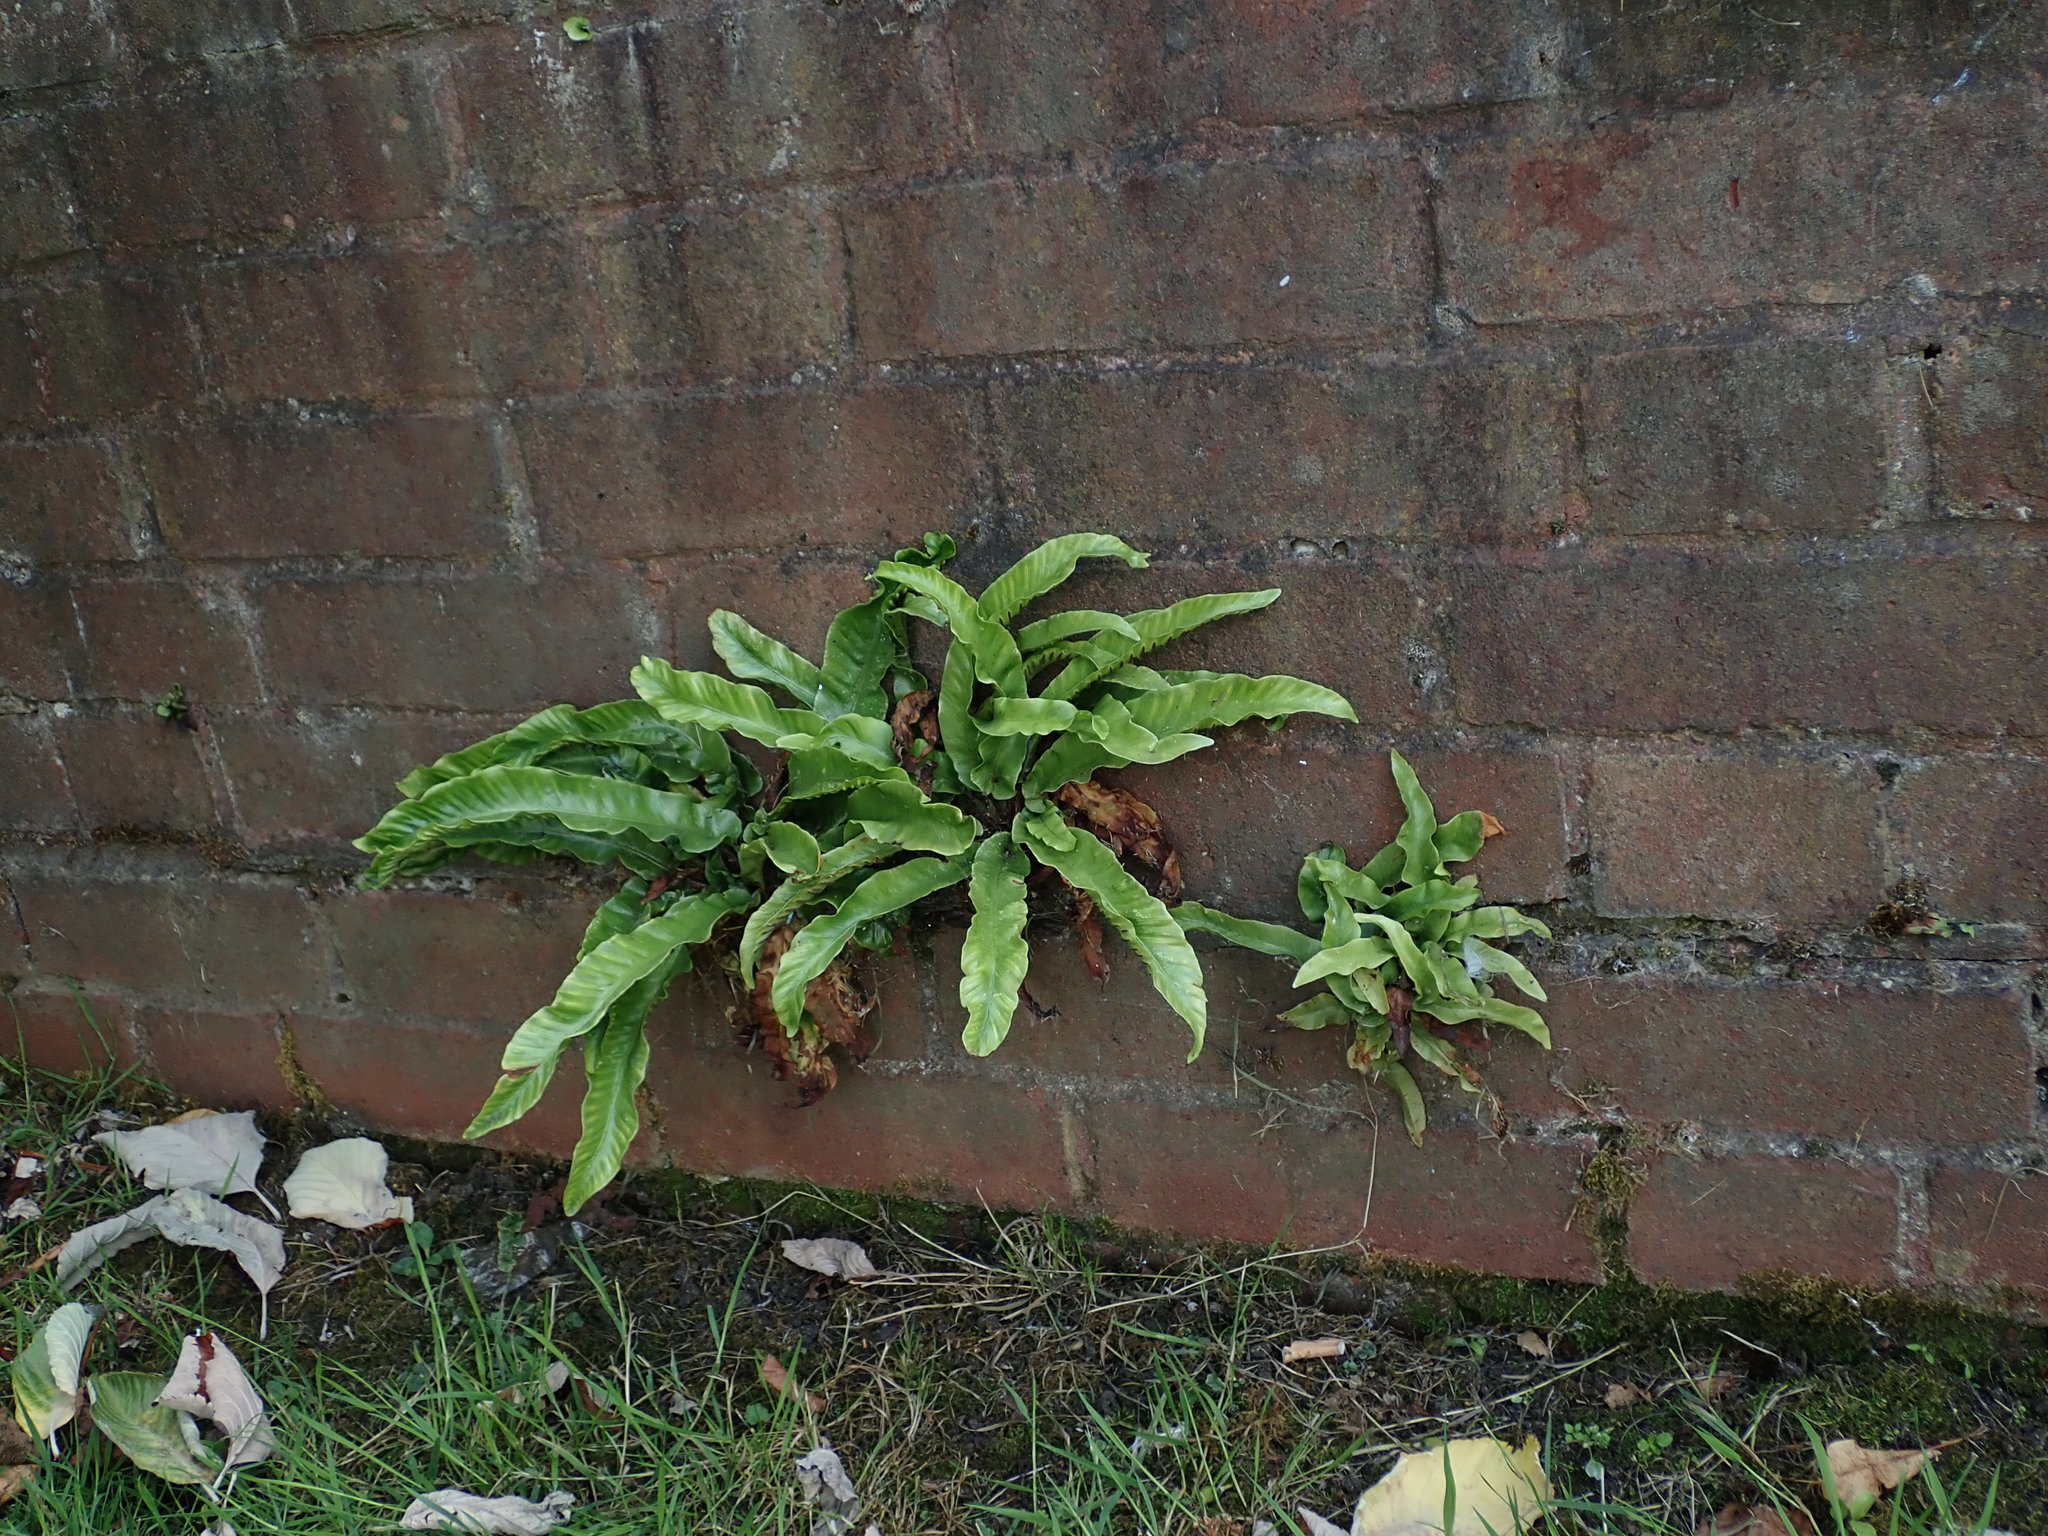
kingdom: Plantae
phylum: Tracheophyta
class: Polypodiopsida
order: Polypodiales
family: Aspleniaceae
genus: Asplenium
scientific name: Asplenium scolopendrium
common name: Hart's-tongue fern
